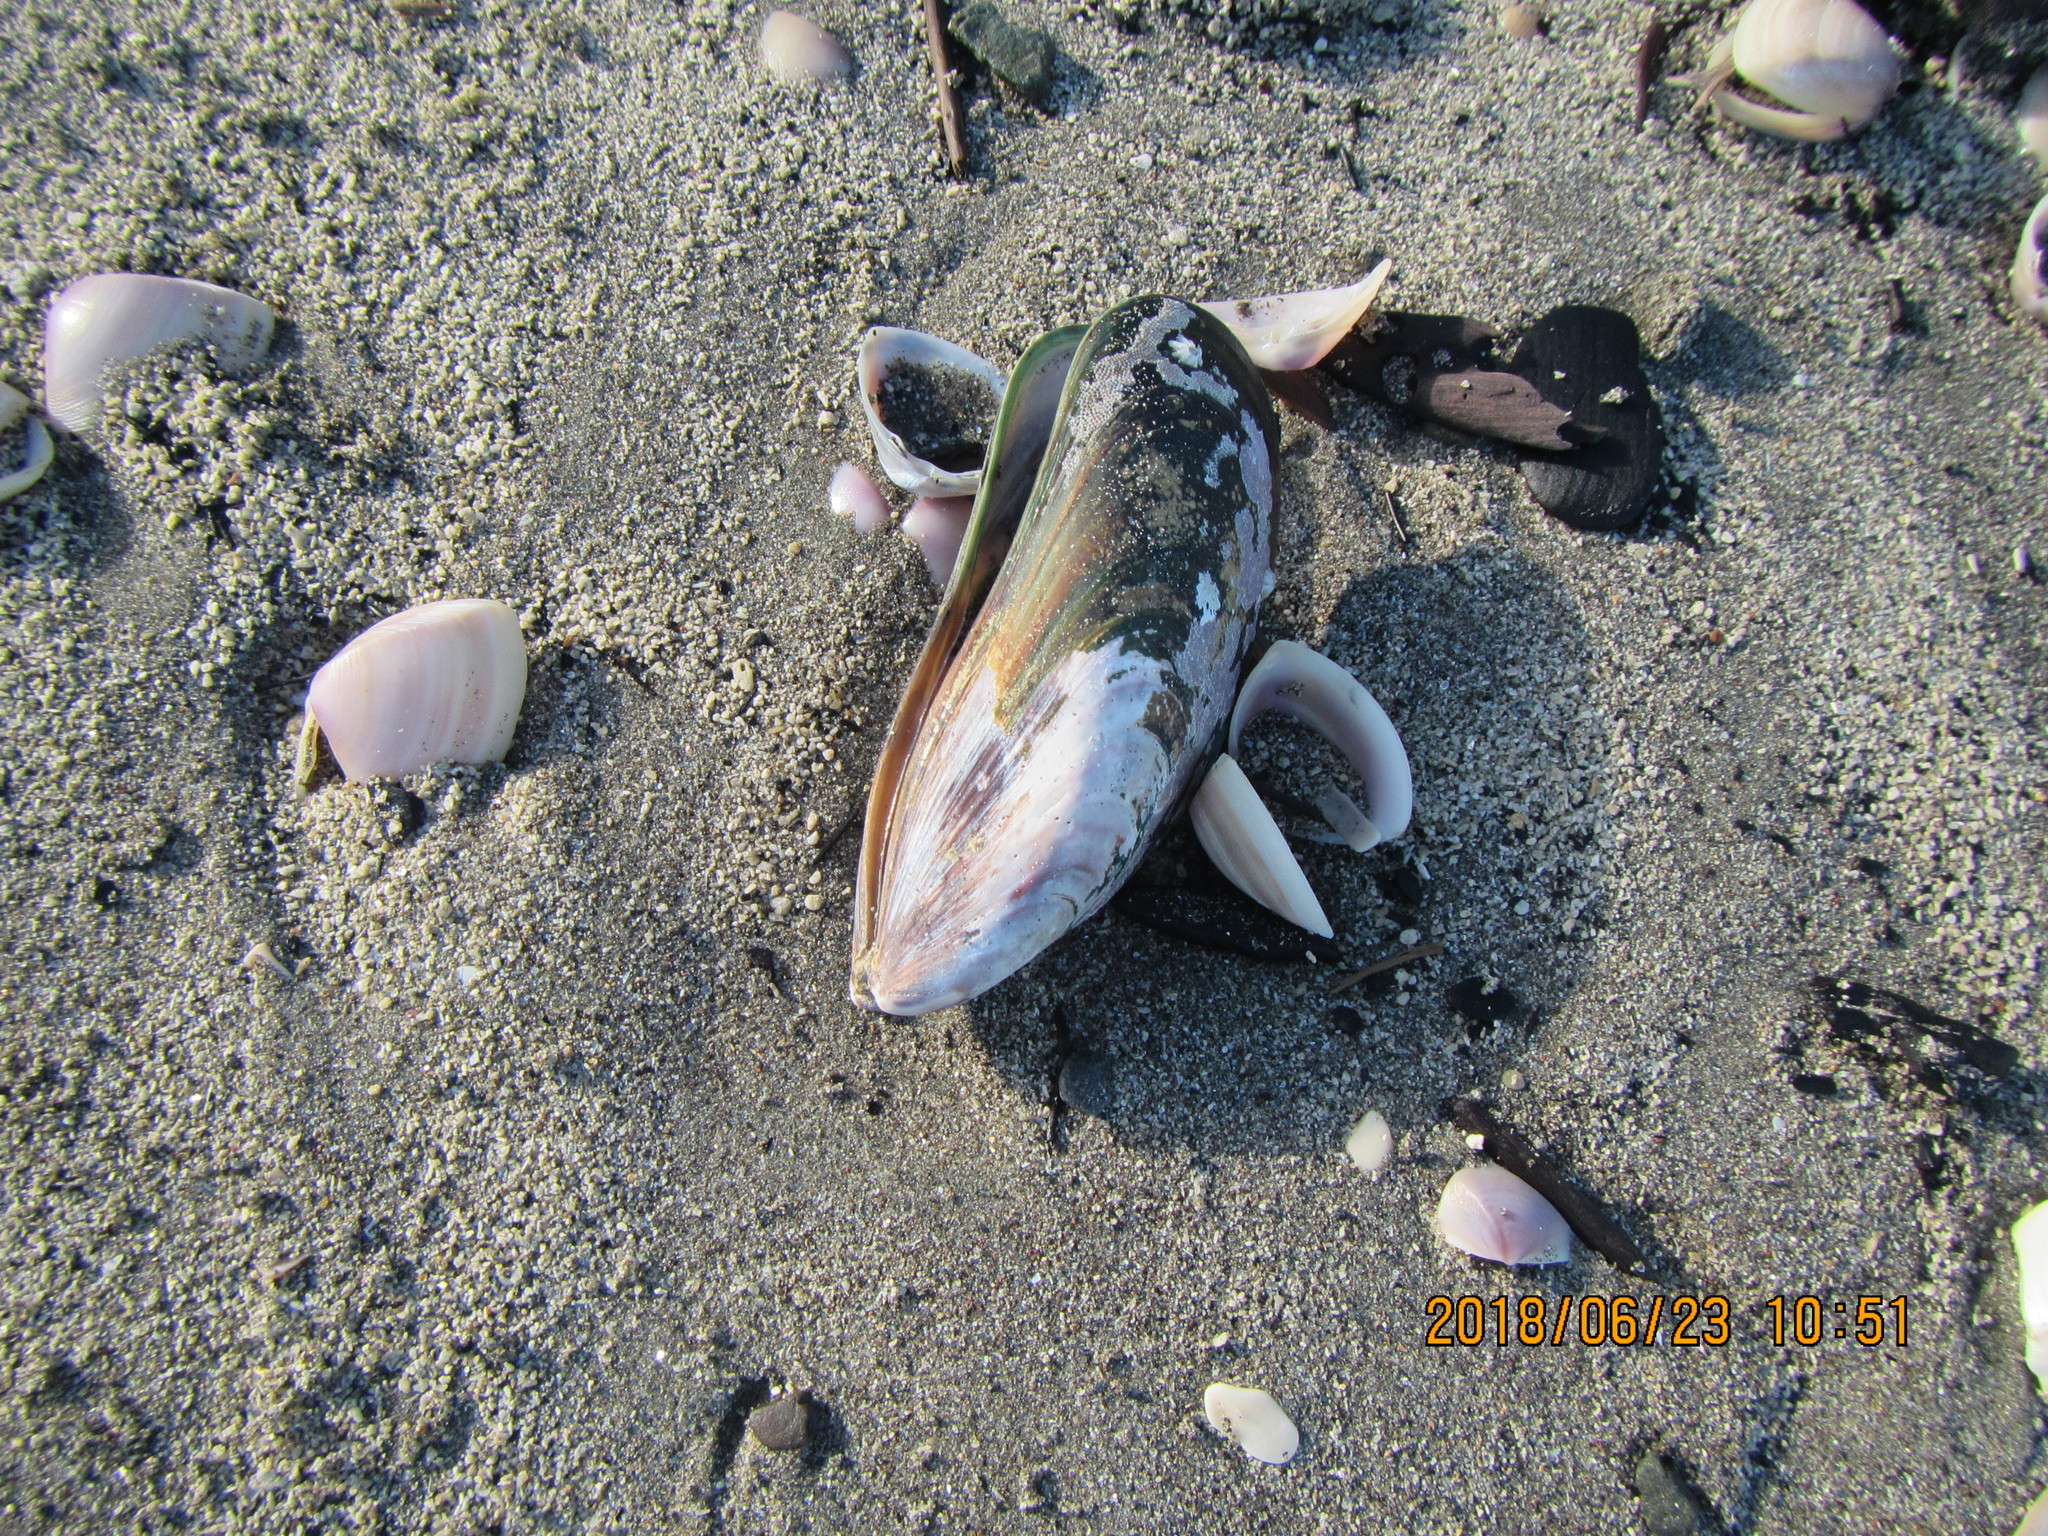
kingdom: Animalia
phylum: Mollusca
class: Bivalvia
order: Mytilida
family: Mytilidae
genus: Perna
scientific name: Perna canaliculus
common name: New zealand greenshelltm
